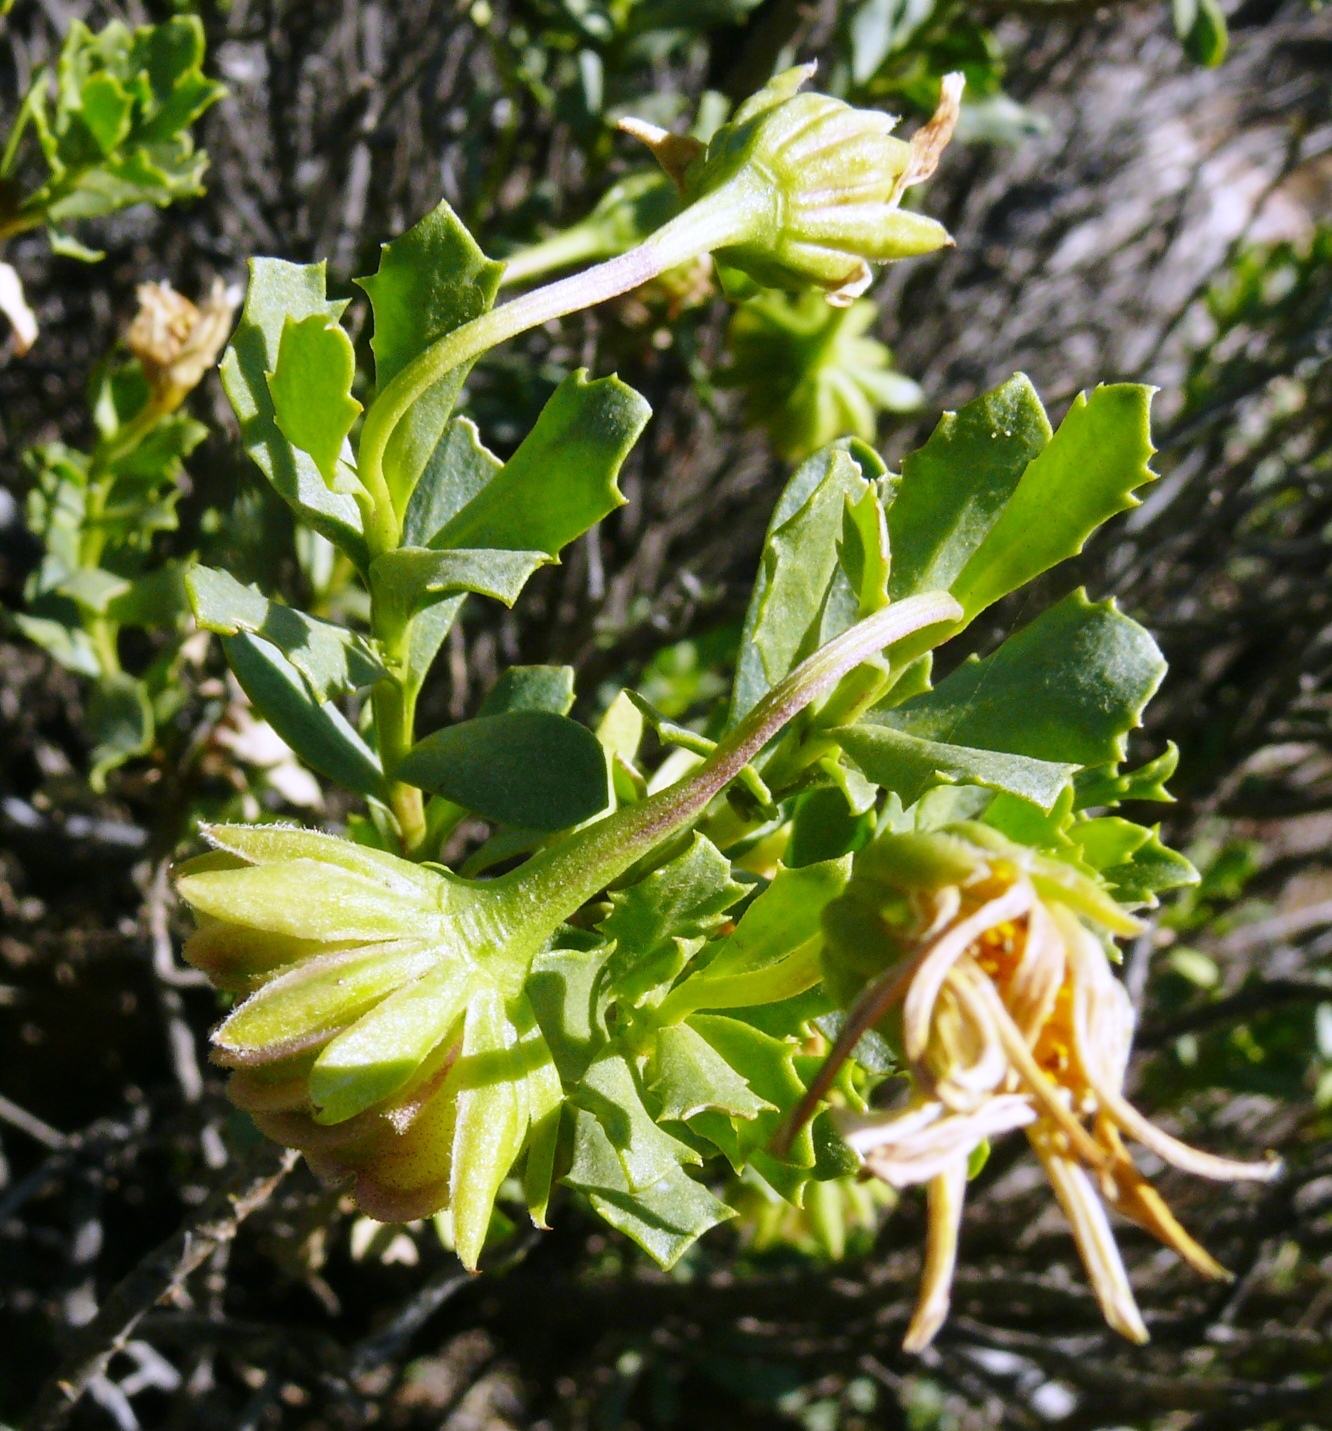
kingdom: Plantae
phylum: Tracheophyta
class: Magnoliopsida
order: Asterales
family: Asteraceae
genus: Dimorphotheca
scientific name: Dimorphotheca cuneata
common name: Daisy
